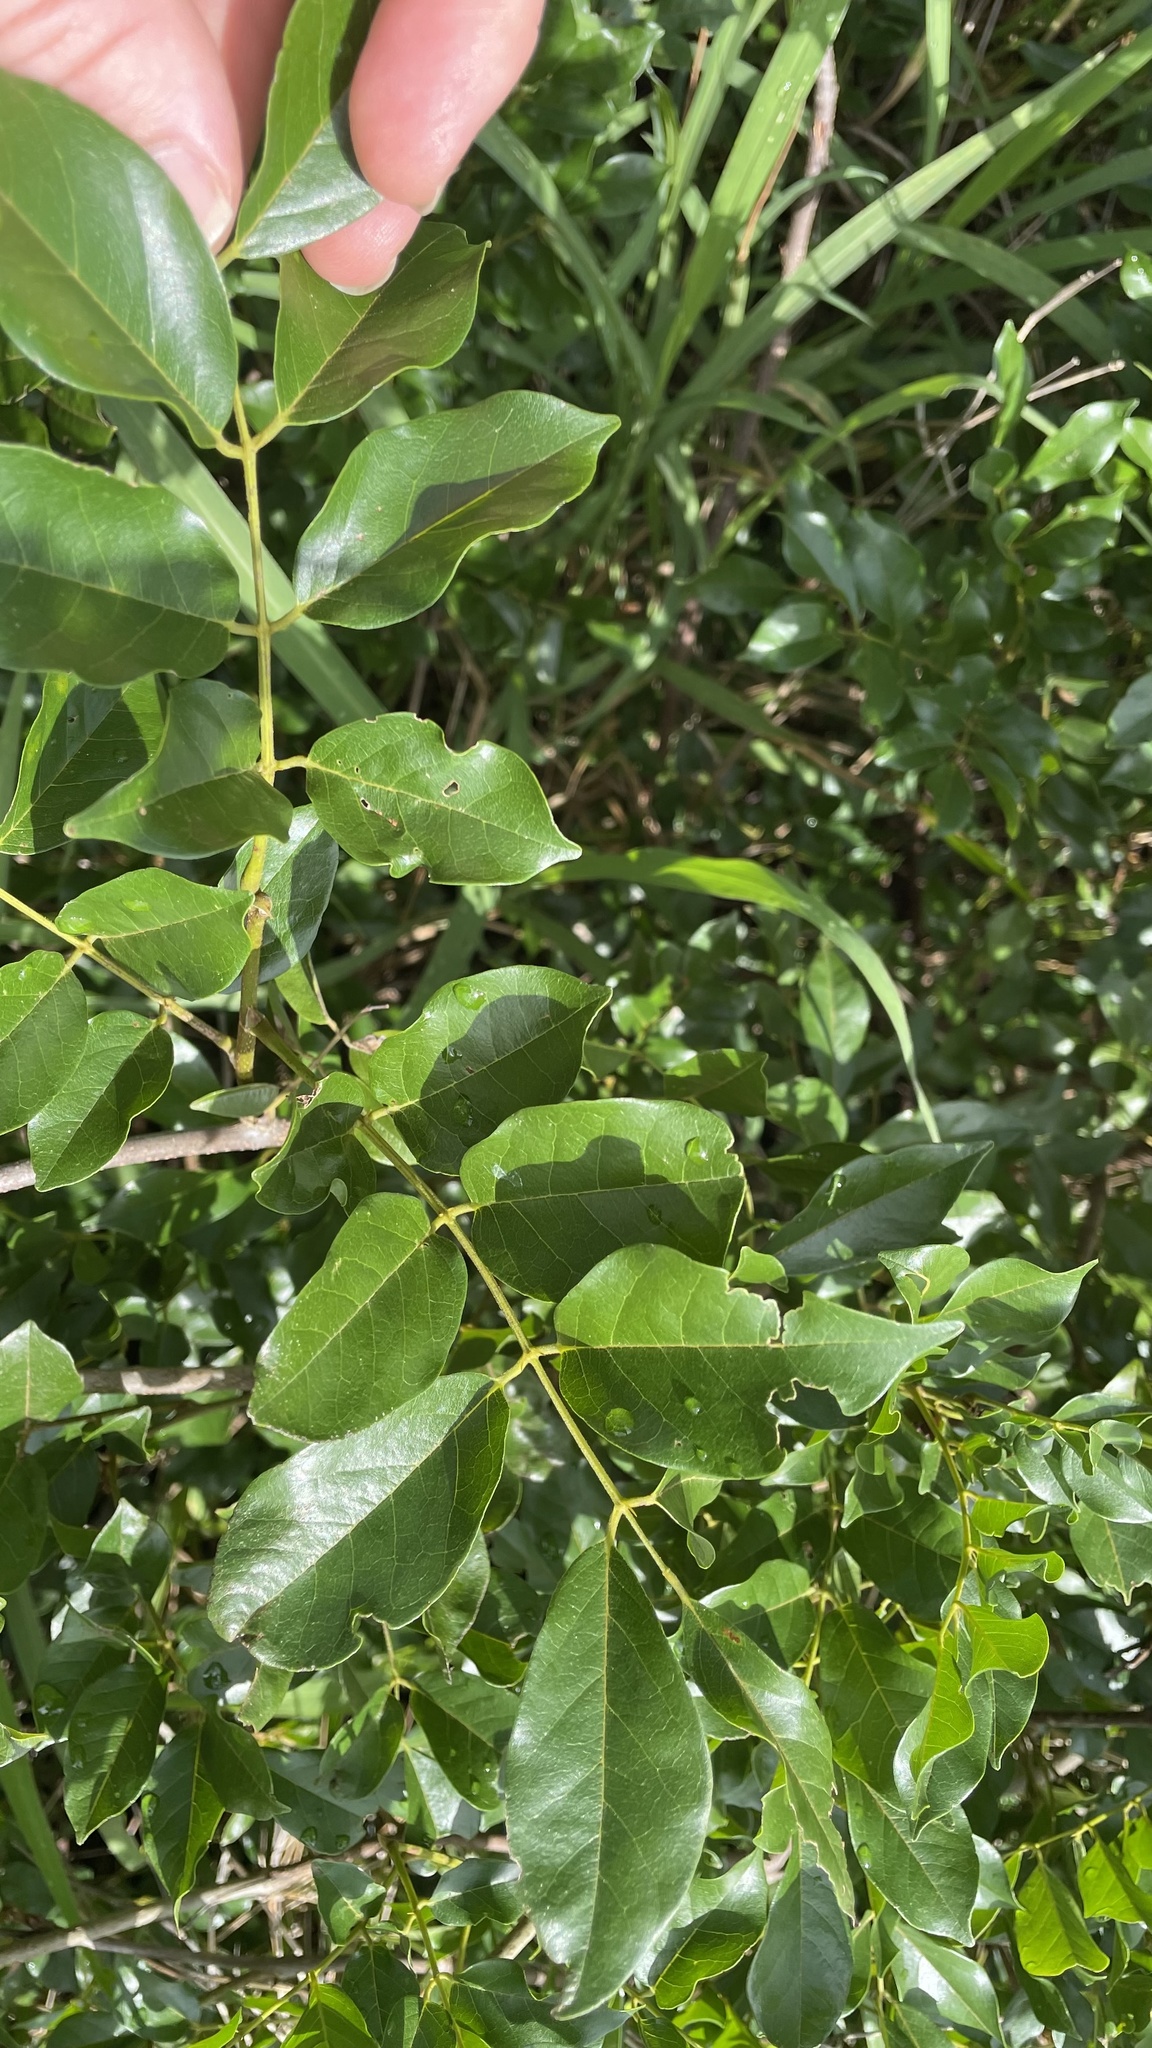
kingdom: Plantae
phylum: Tracheophyta
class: Magnoliopsida
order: Fabales
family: Fabaceae
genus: Austrosteenisia
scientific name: Austrosteenisia blackii
